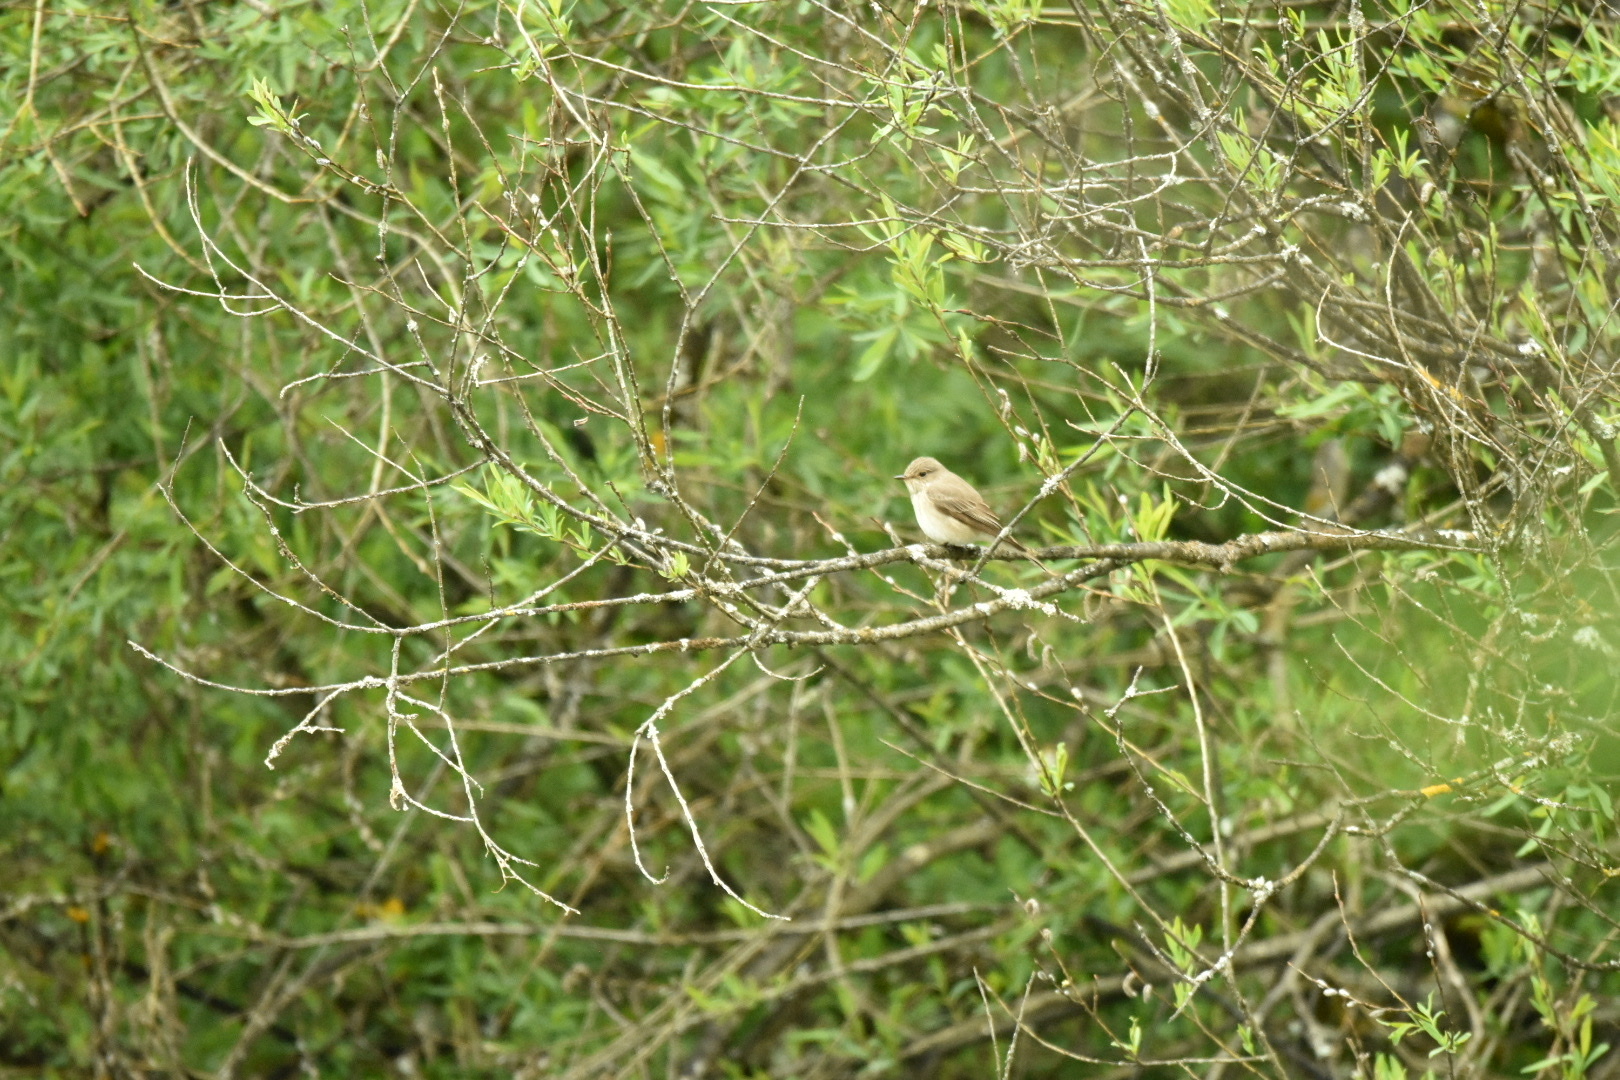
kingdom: Animalia
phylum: Chordata
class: Aves
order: Passeriformes
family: Muscicapidae
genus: Muscicapa
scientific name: Muscicapa striata
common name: Spotted flycatcher
